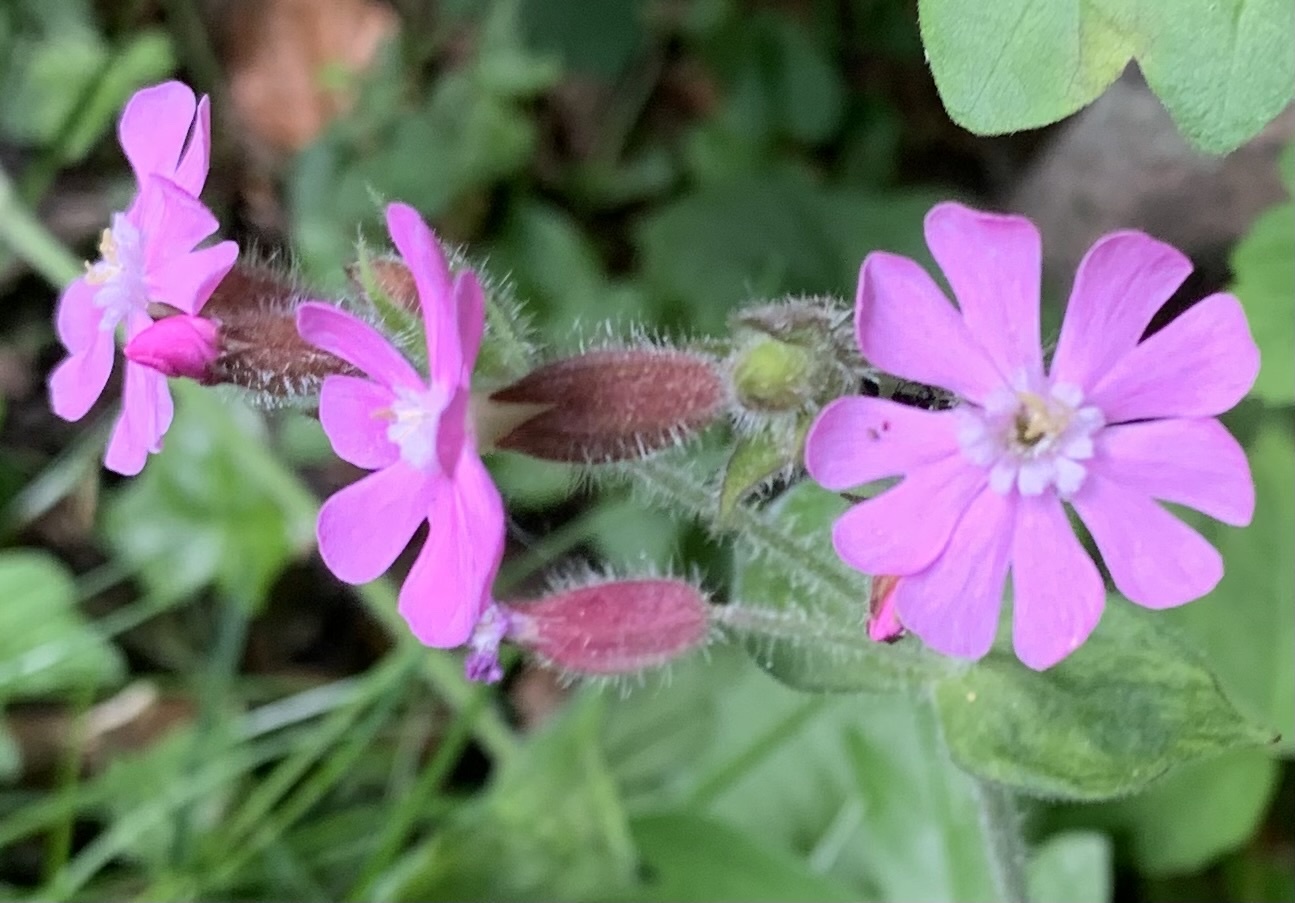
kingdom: Plantae
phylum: Tracheophyta
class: Magnoliopsida
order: Caryophyllales
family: Caryophyllaceae
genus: Silene
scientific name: Silene dioica
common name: Red campion
